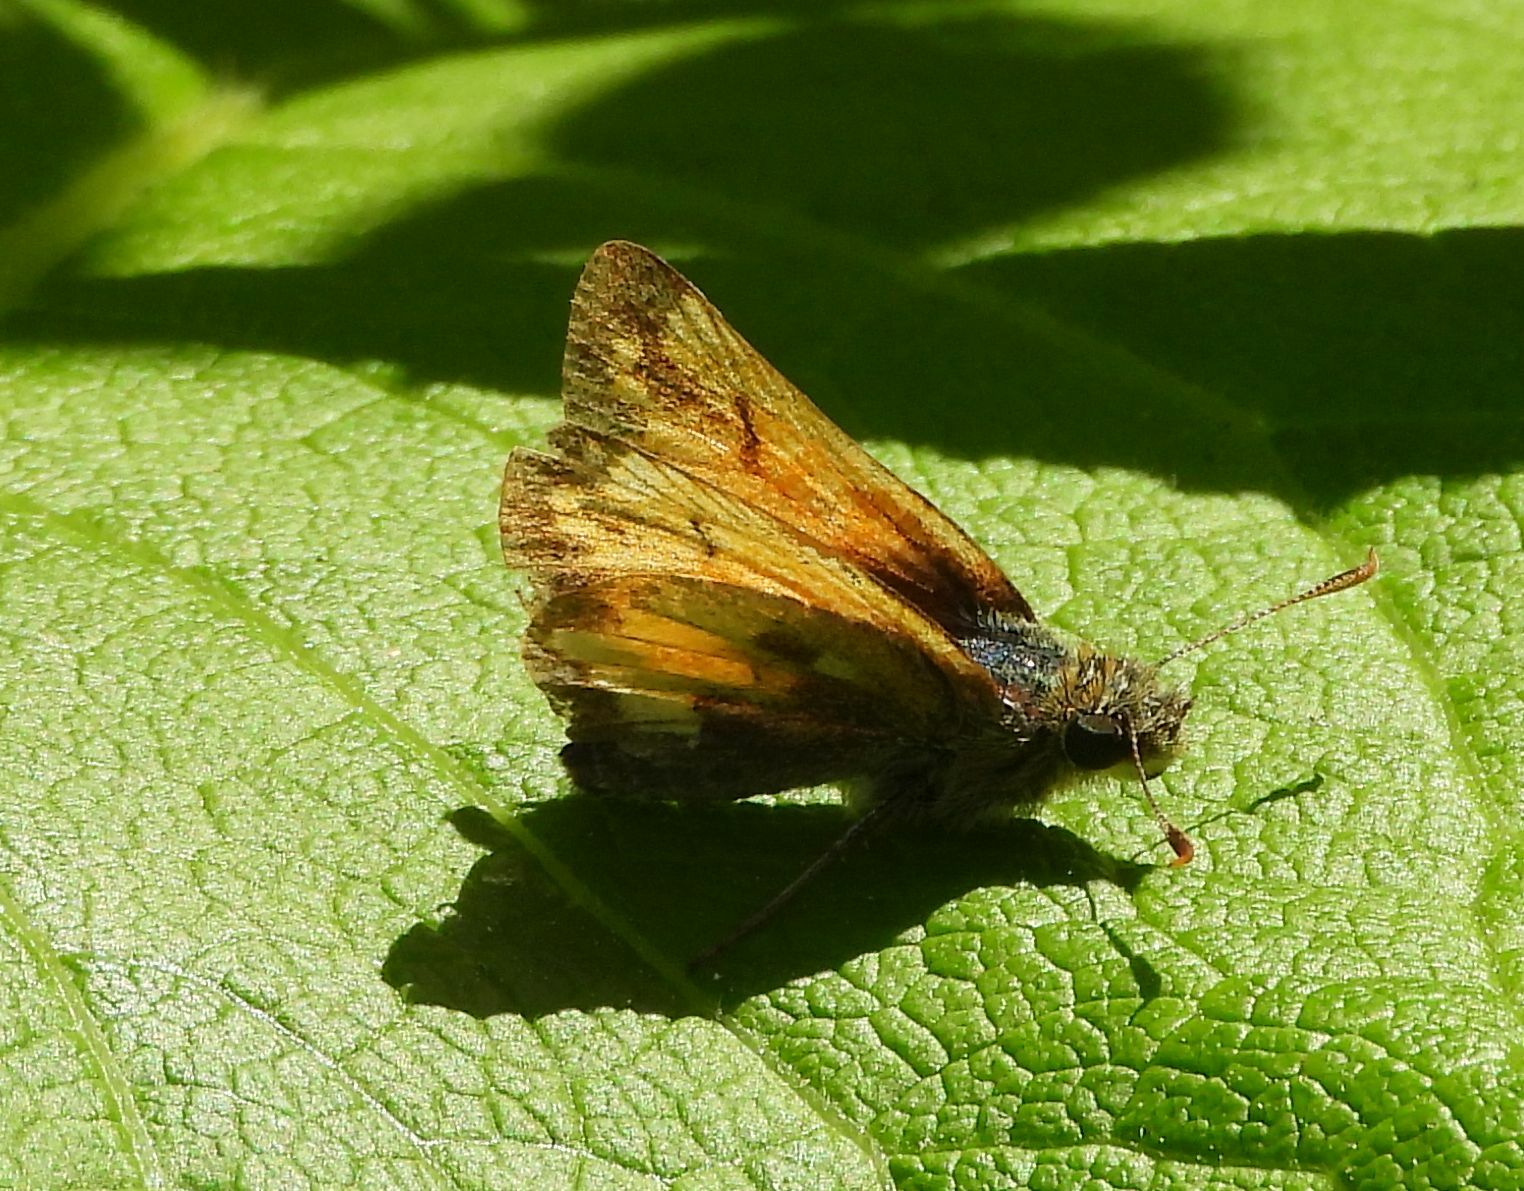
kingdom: Animalia
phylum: Arthropoda
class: Insecta
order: Lepidoptera
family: Hesperiidae
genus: Lon
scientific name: Lon hobomok
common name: Hobomok skipper
